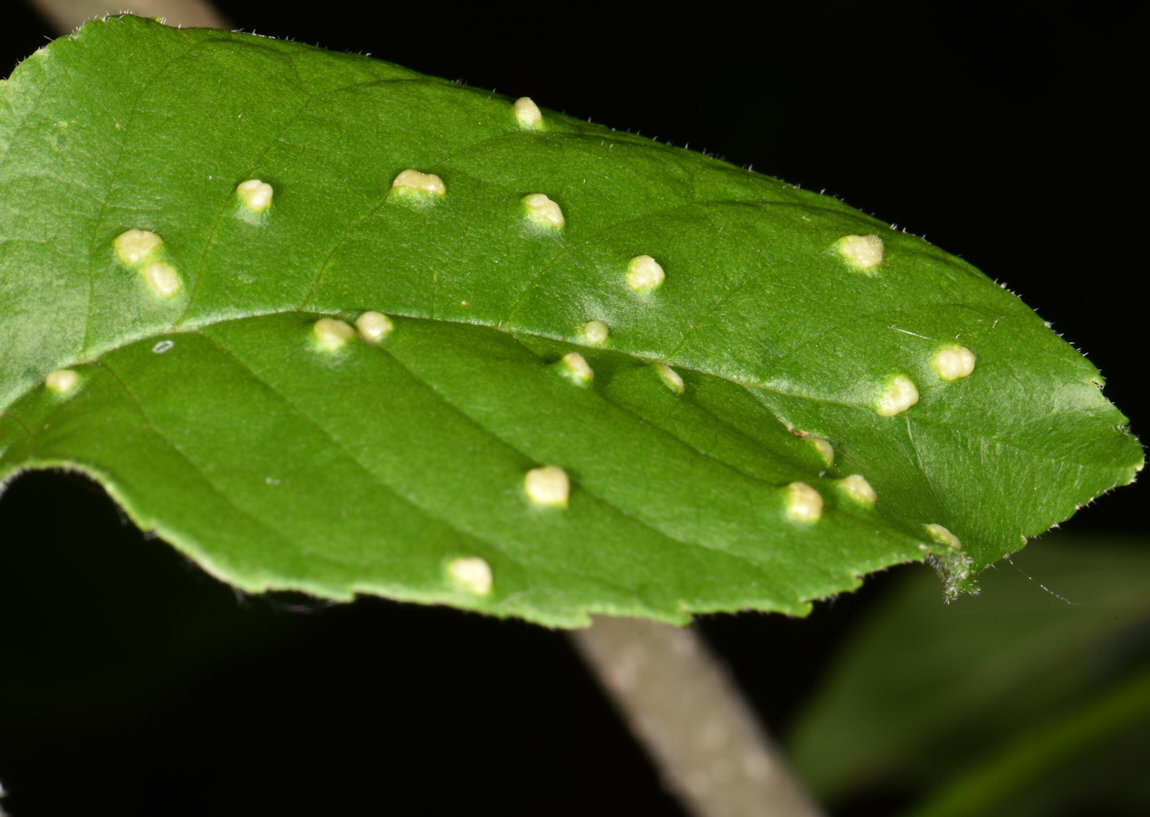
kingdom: Animalia
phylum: Arthropoda
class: Arachnida
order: Trombidiformes
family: Eriophyidae
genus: Aceria
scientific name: Aceria fraxinicola
